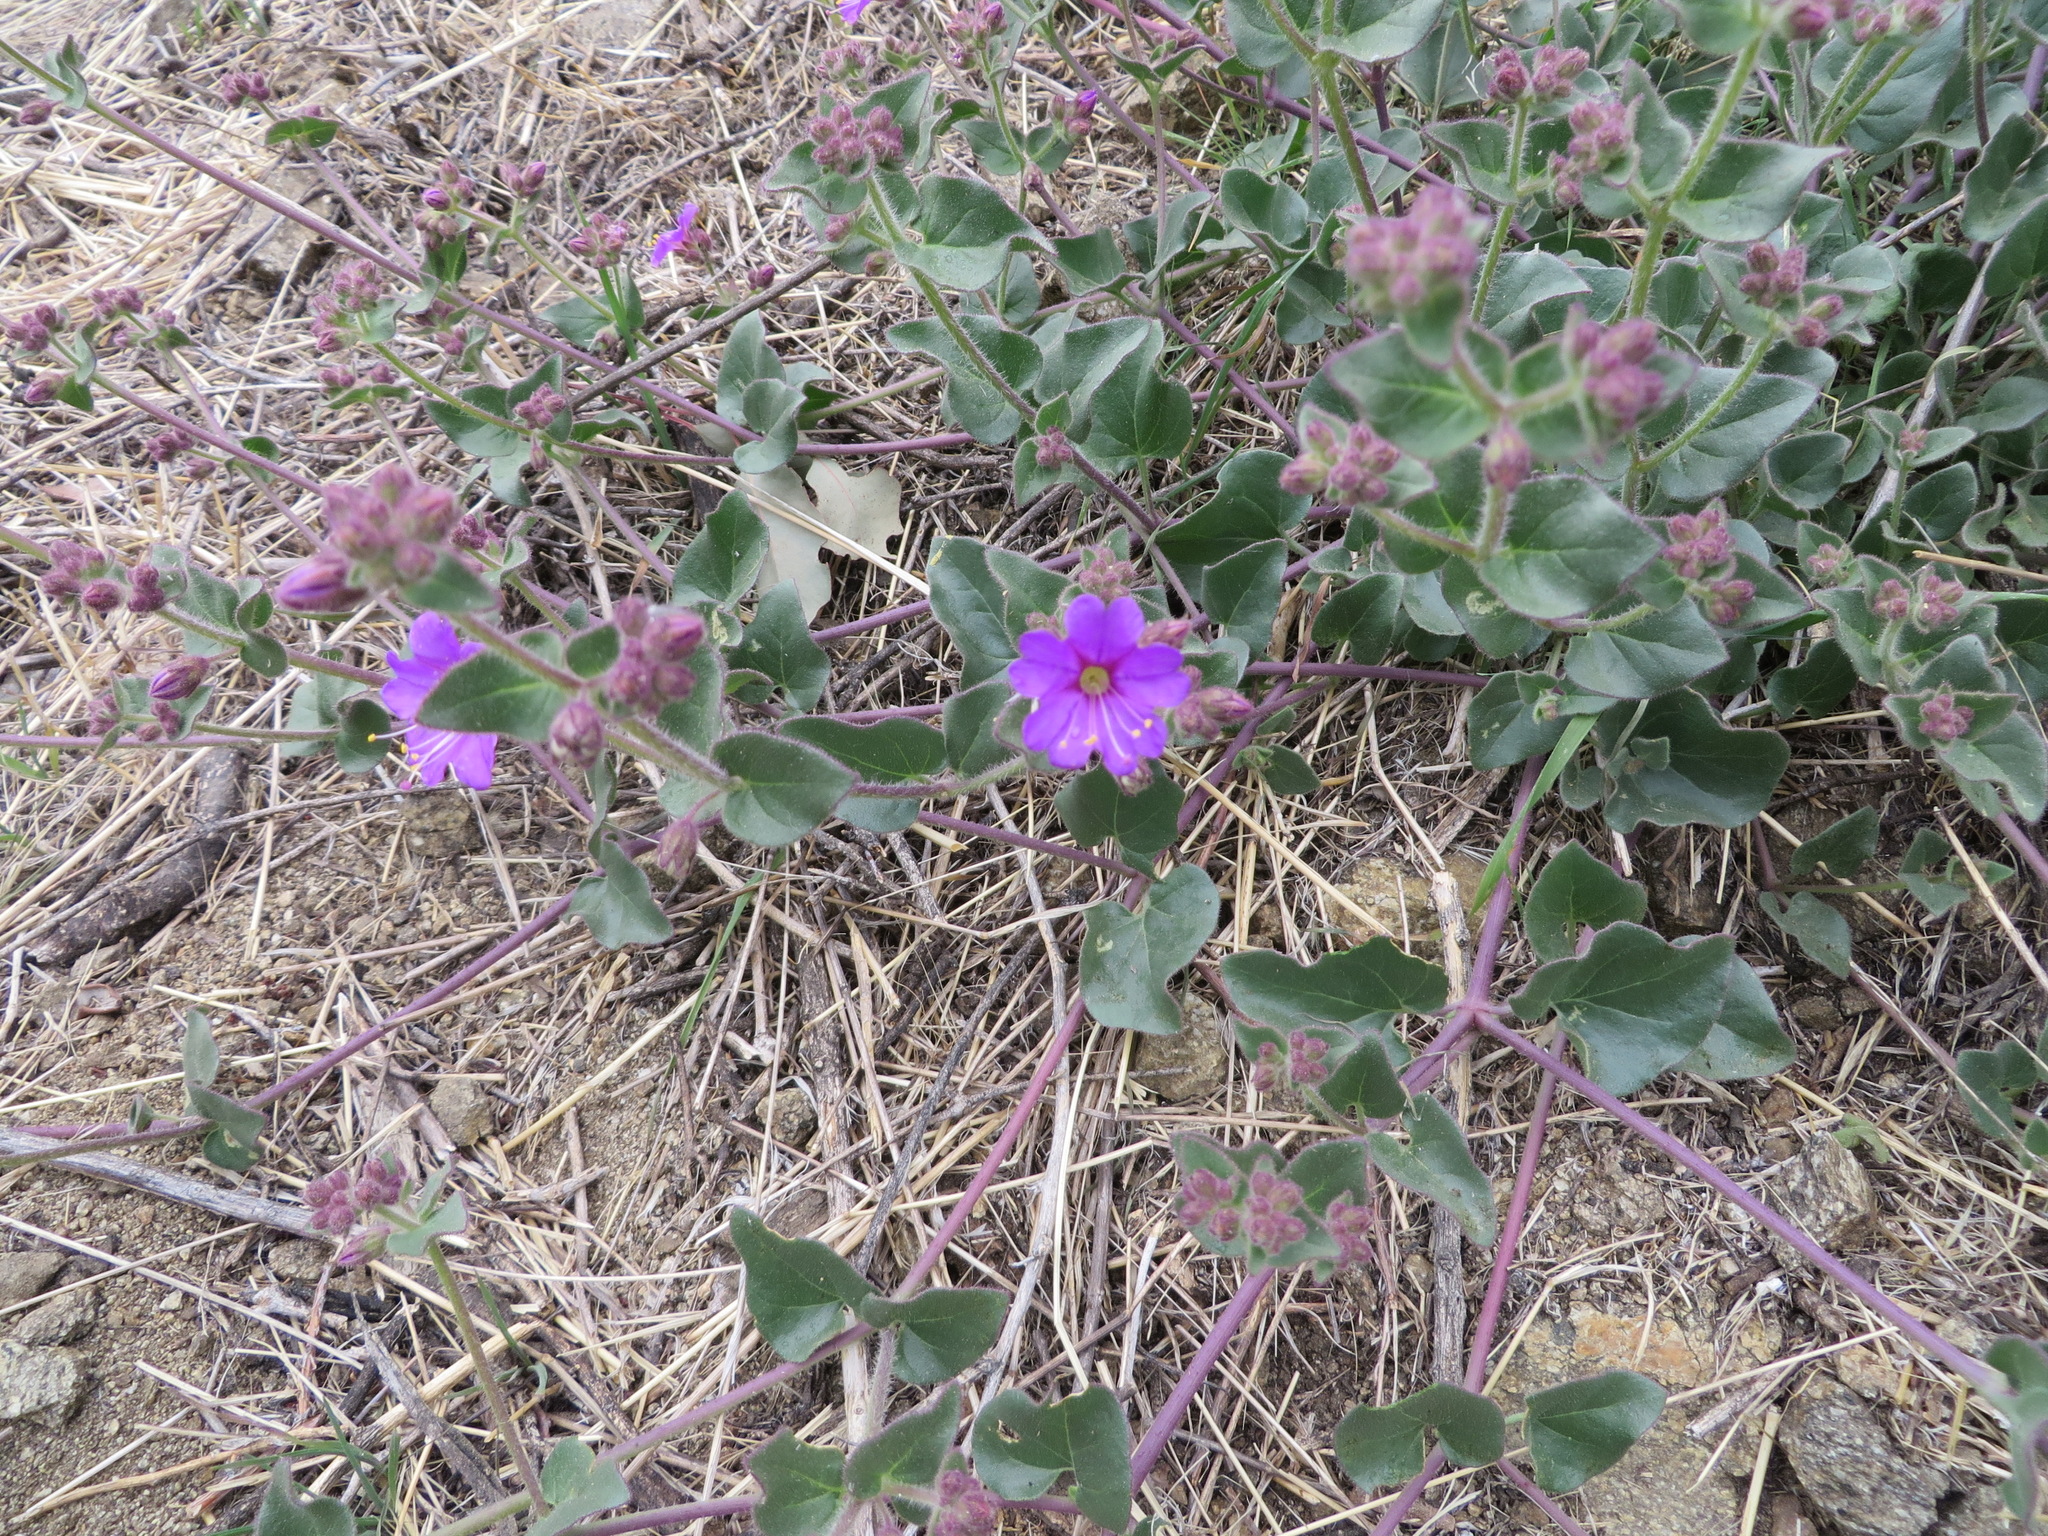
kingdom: Plantae
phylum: Tracheophyta
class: Magnoliopsida
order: Caryophyllales
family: Nyctaginaceae
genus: Mirabilis
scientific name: Mirabilis laevis
